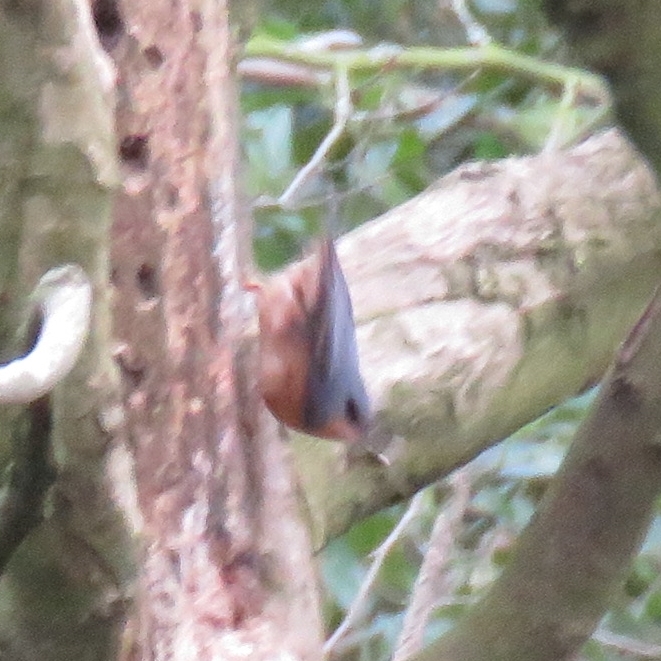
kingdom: Animalia
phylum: Chordata
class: Aves
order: Passeriformes
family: Sittidae
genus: Sitta
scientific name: Sitta europaea
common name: Eurasian nuthatch
